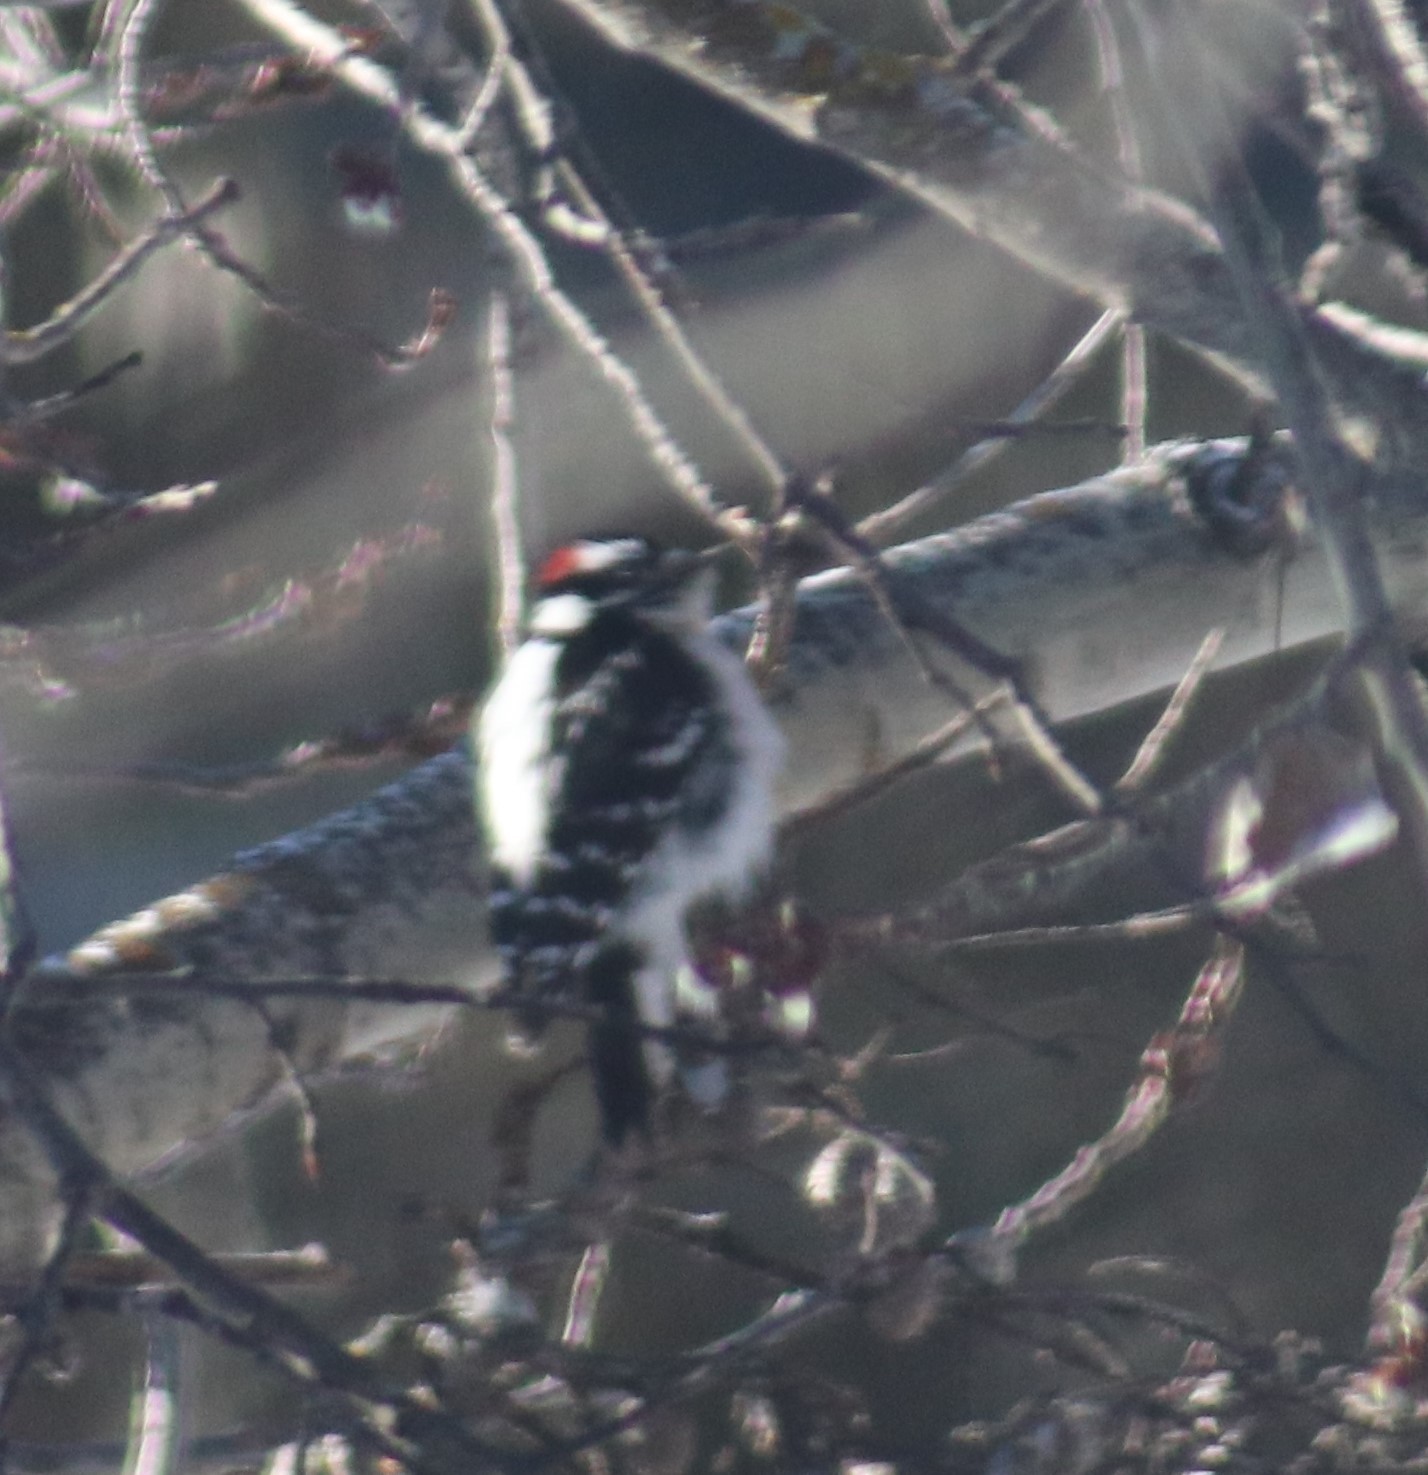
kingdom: Animalia
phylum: Chordata
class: Aves
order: Piciformes
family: Picidae
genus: Dryobates
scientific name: Dryobates pubescens
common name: Downy woodpecker
